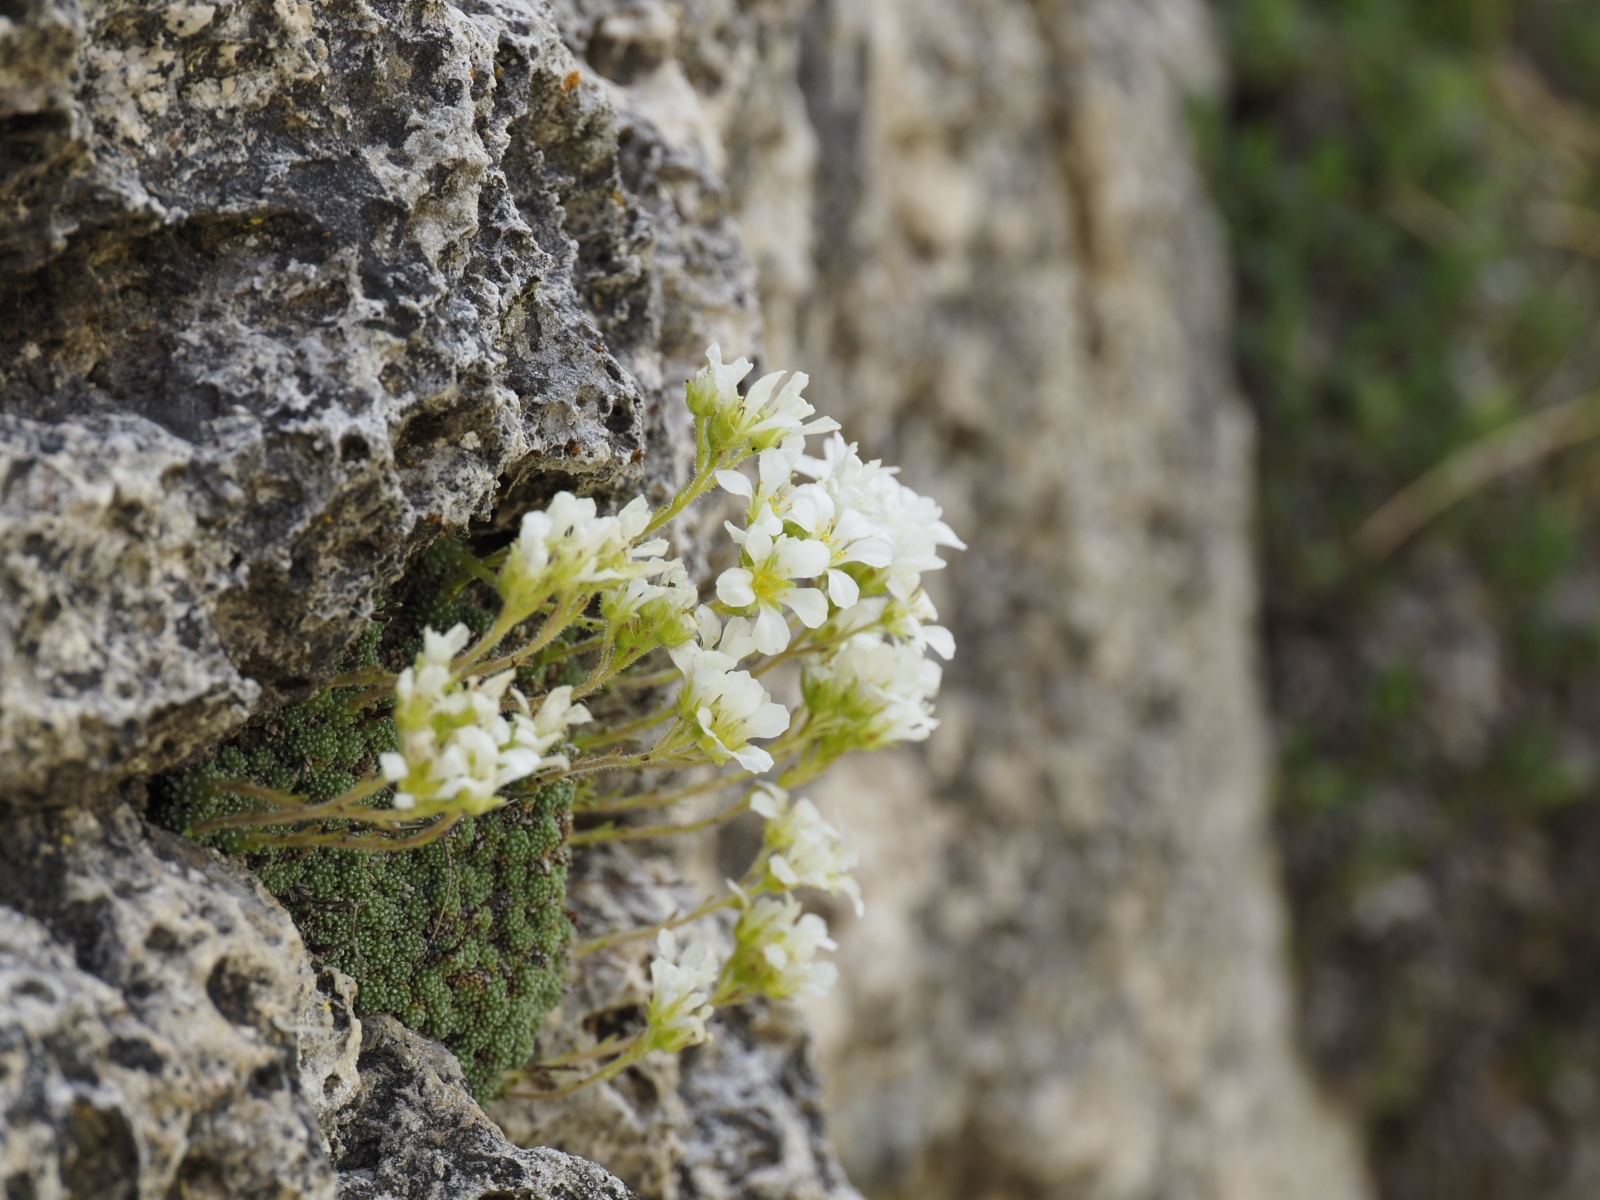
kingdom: Plantae
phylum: Tracheophyta
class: Magnoliopsida
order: Saxifragales
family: Saxifragaceae
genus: Saxifraga
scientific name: Saxifraga diapensioides
